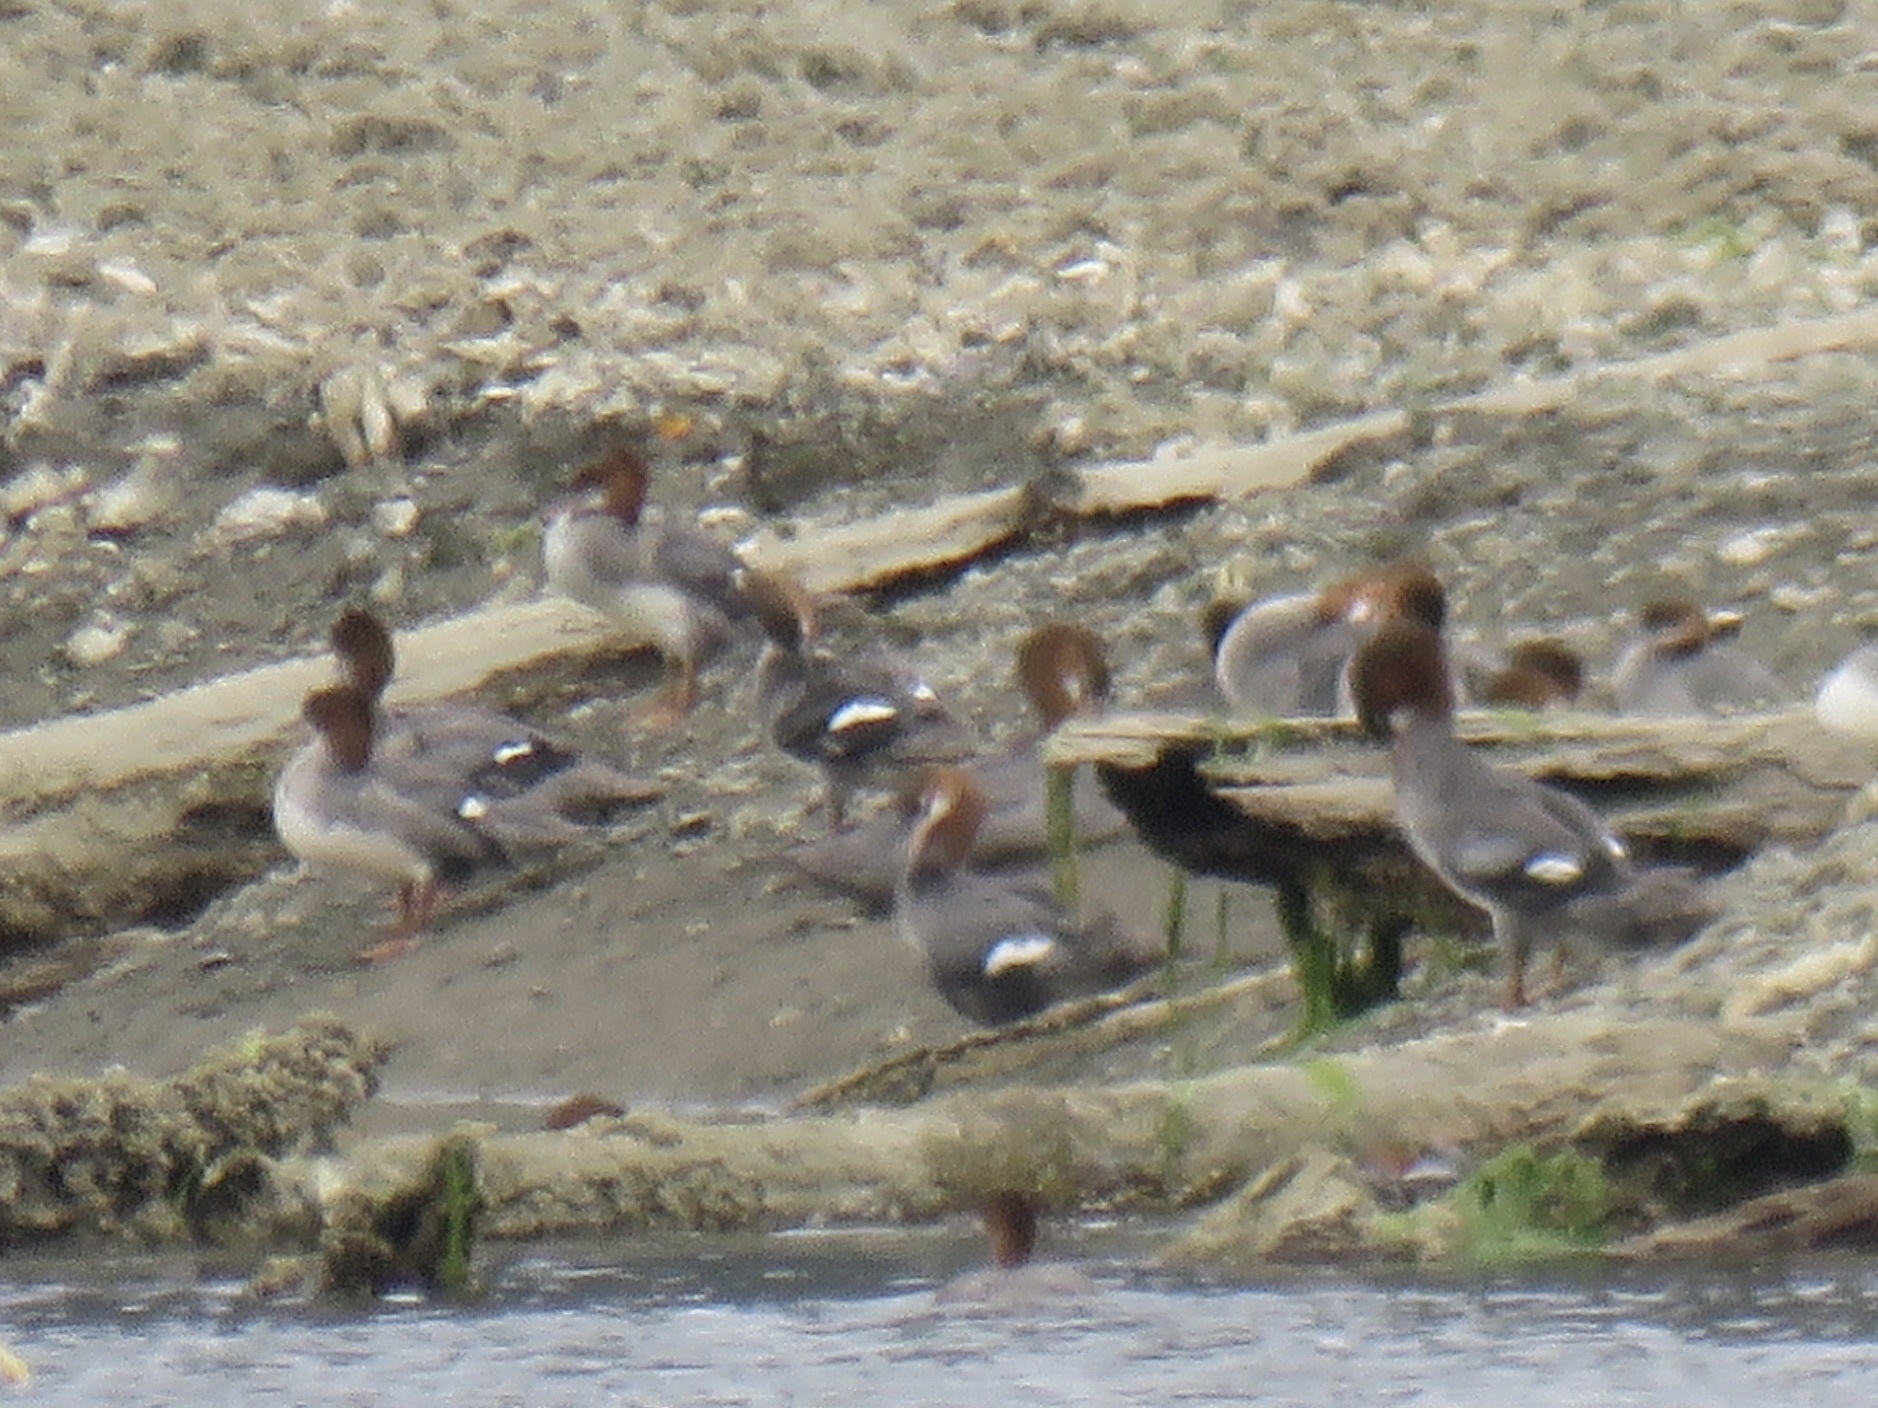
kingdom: Animalia
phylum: Chordata
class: Aves
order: Anseriformes
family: Anatidae
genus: Mergus
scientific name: Mergus merganser
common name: Common merganser
